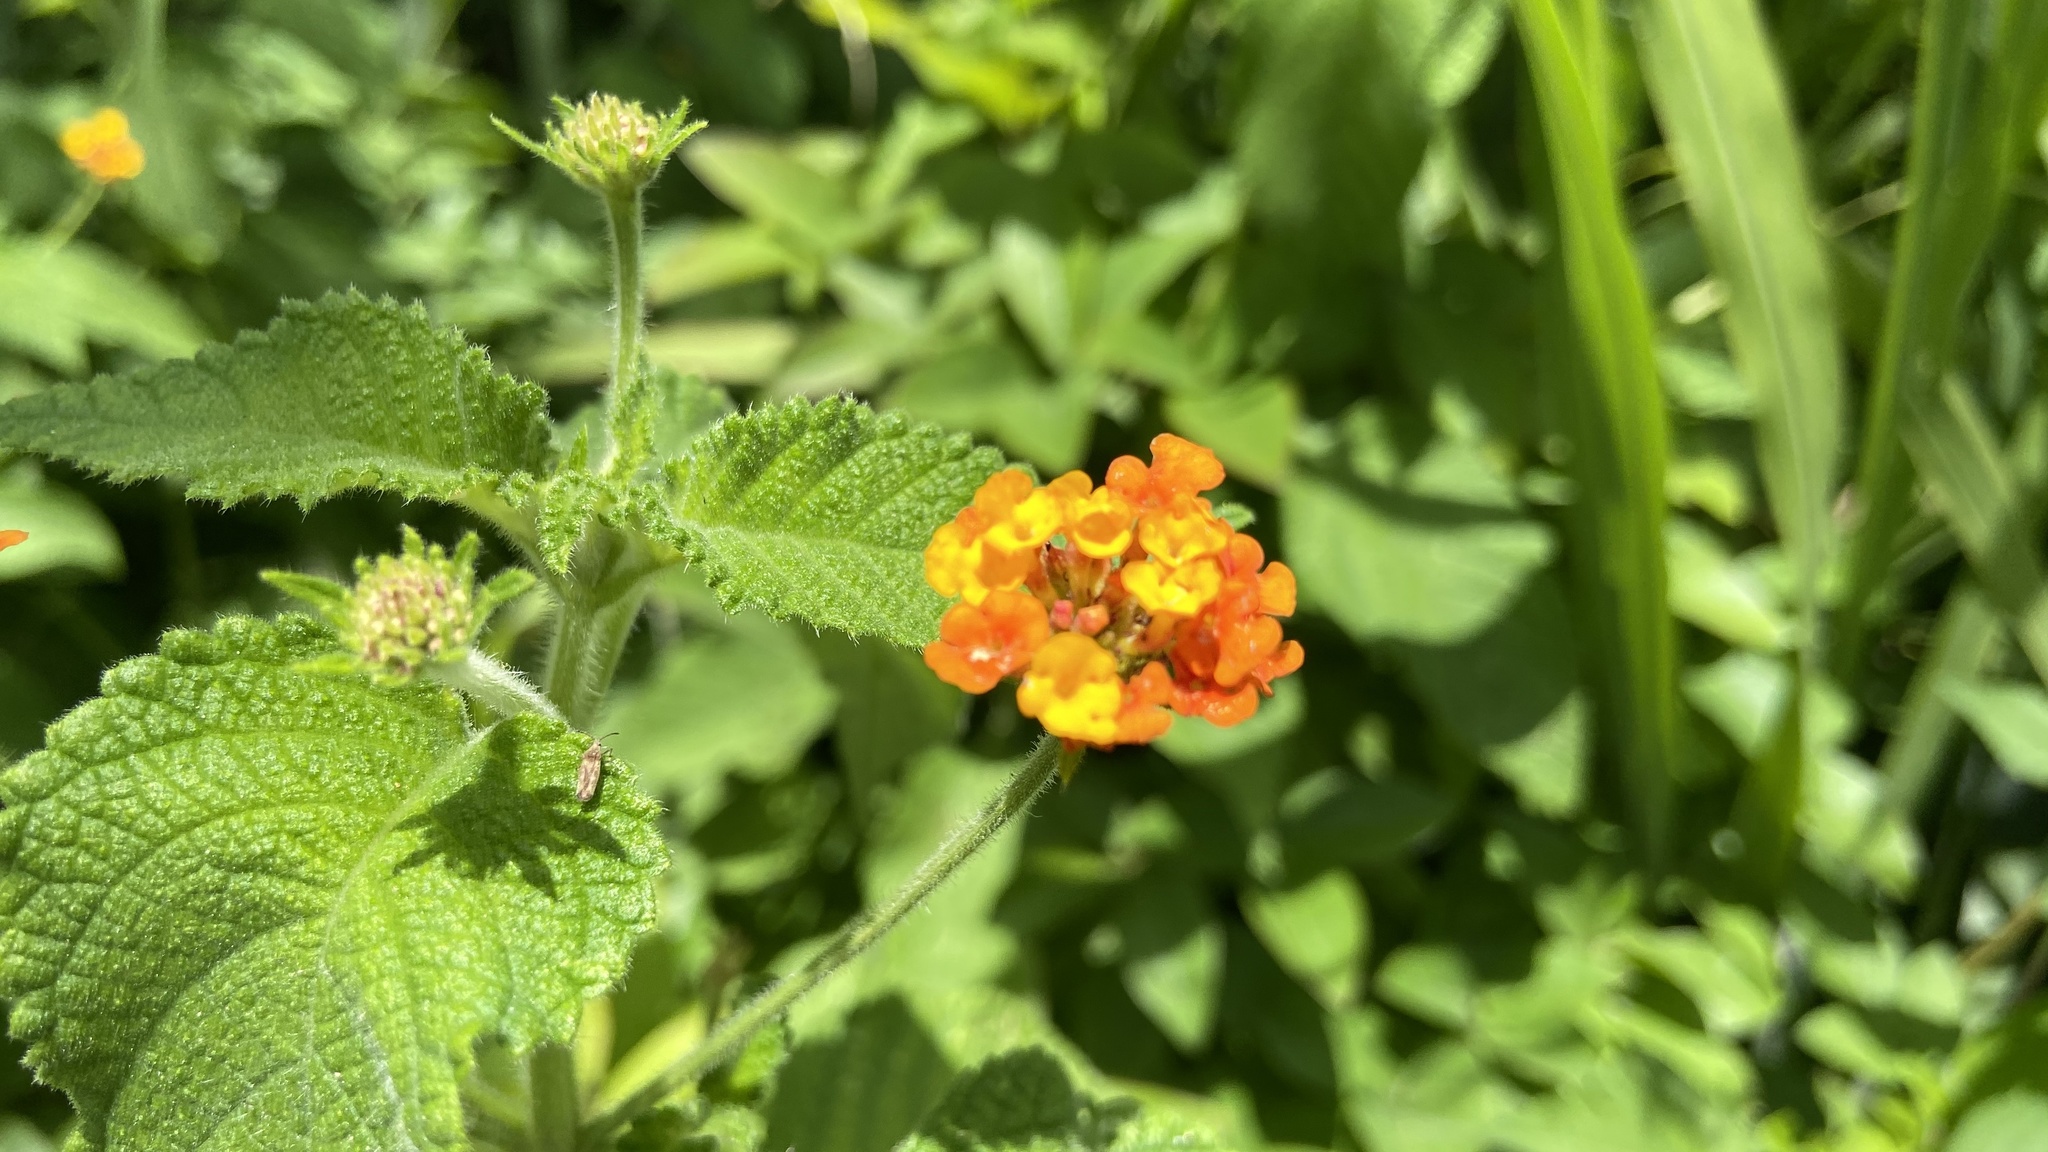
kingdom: Plantae
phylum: Tracheophyta
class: Magnoliopsida
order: Lamiales
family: Verbenaceae
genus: Lantana
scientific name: Lantana camara
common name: Lantana
